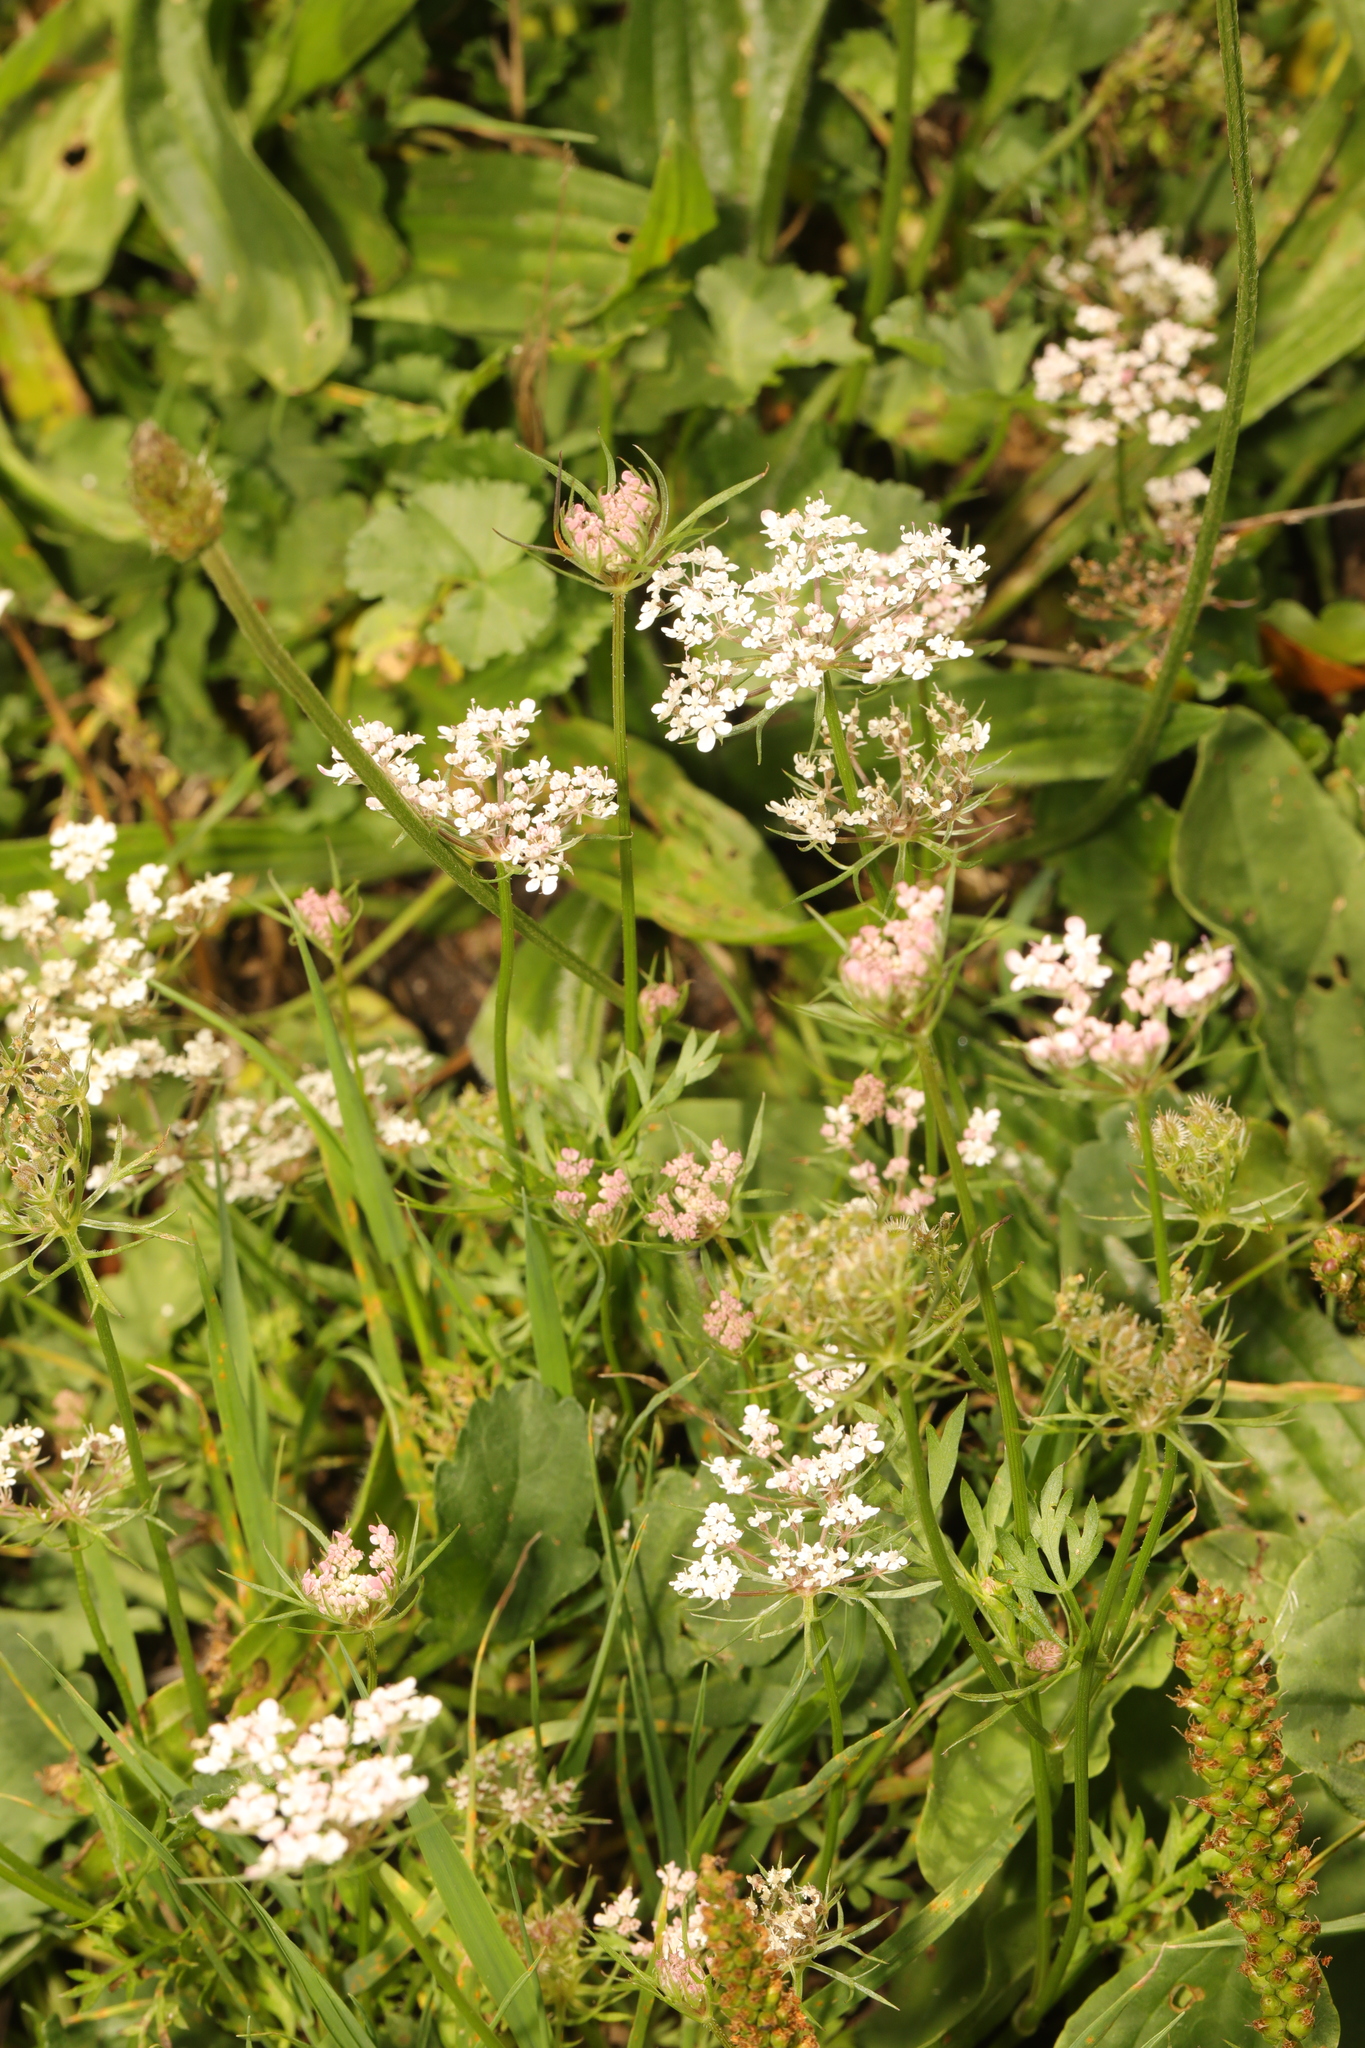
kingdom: Plantae
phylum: Tracheophyta
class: Magnoliopsida
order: Apiales
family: Apiaceae
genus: Daucus
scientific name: Daucus carota
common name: Wild carrot
